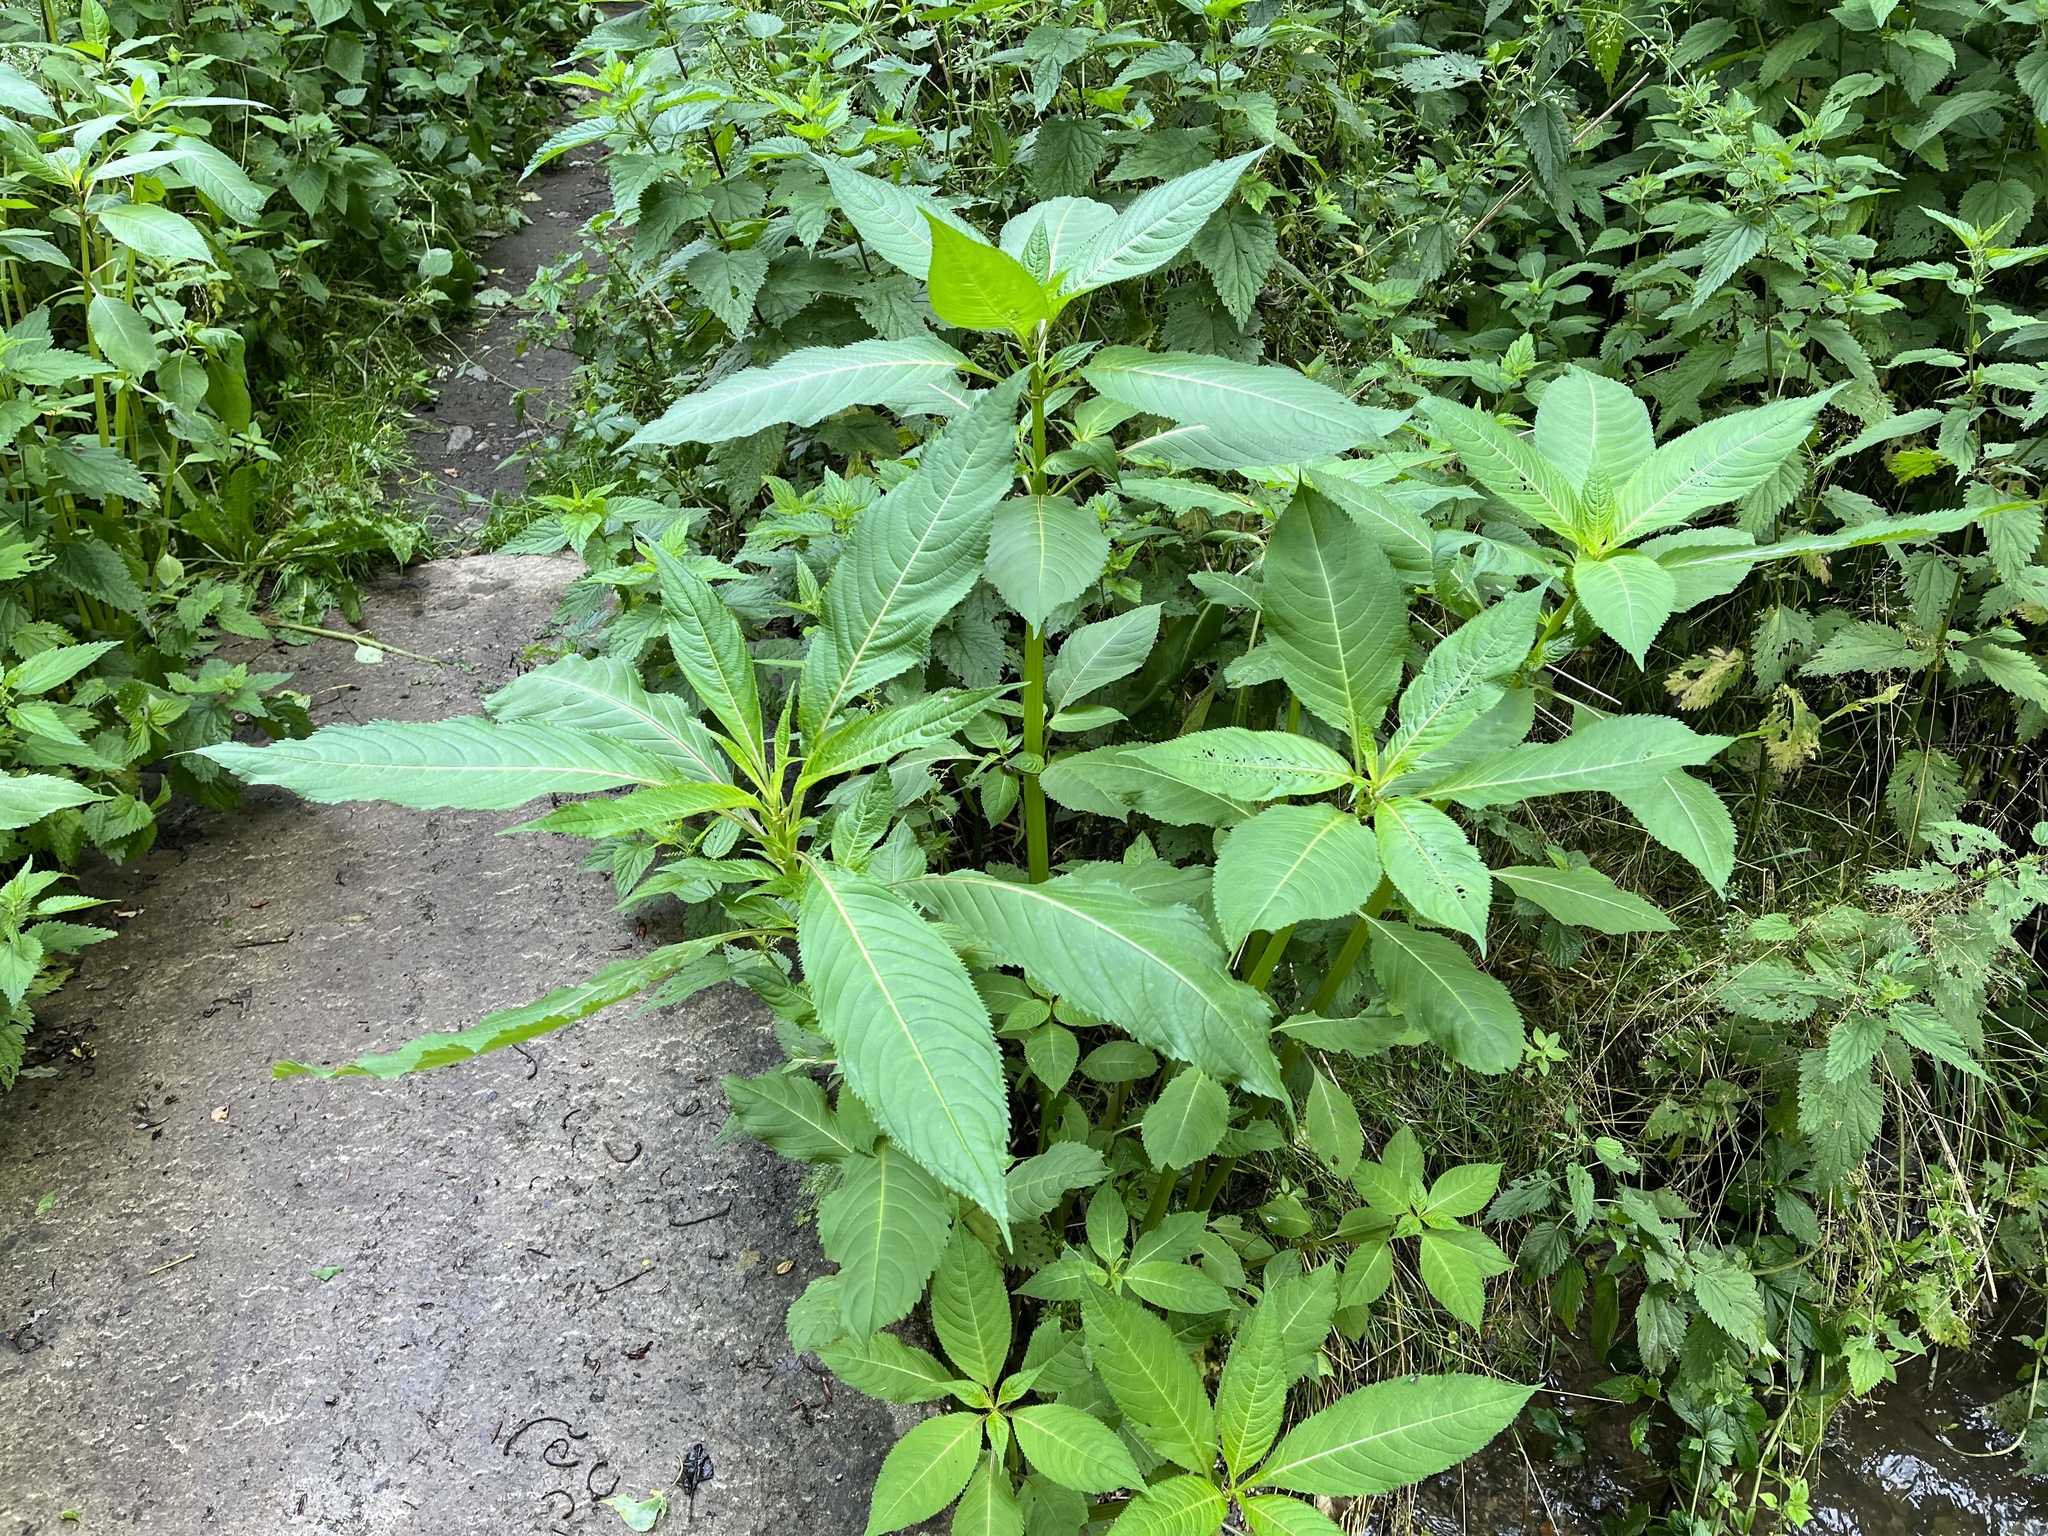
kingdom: Plantae
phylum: Tracheophyta
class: Magnoliopsida
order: Ericales
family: Balsaminaceae
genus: Impatiens
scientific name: Impatiens glandulifera
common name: Himalayan balsam
